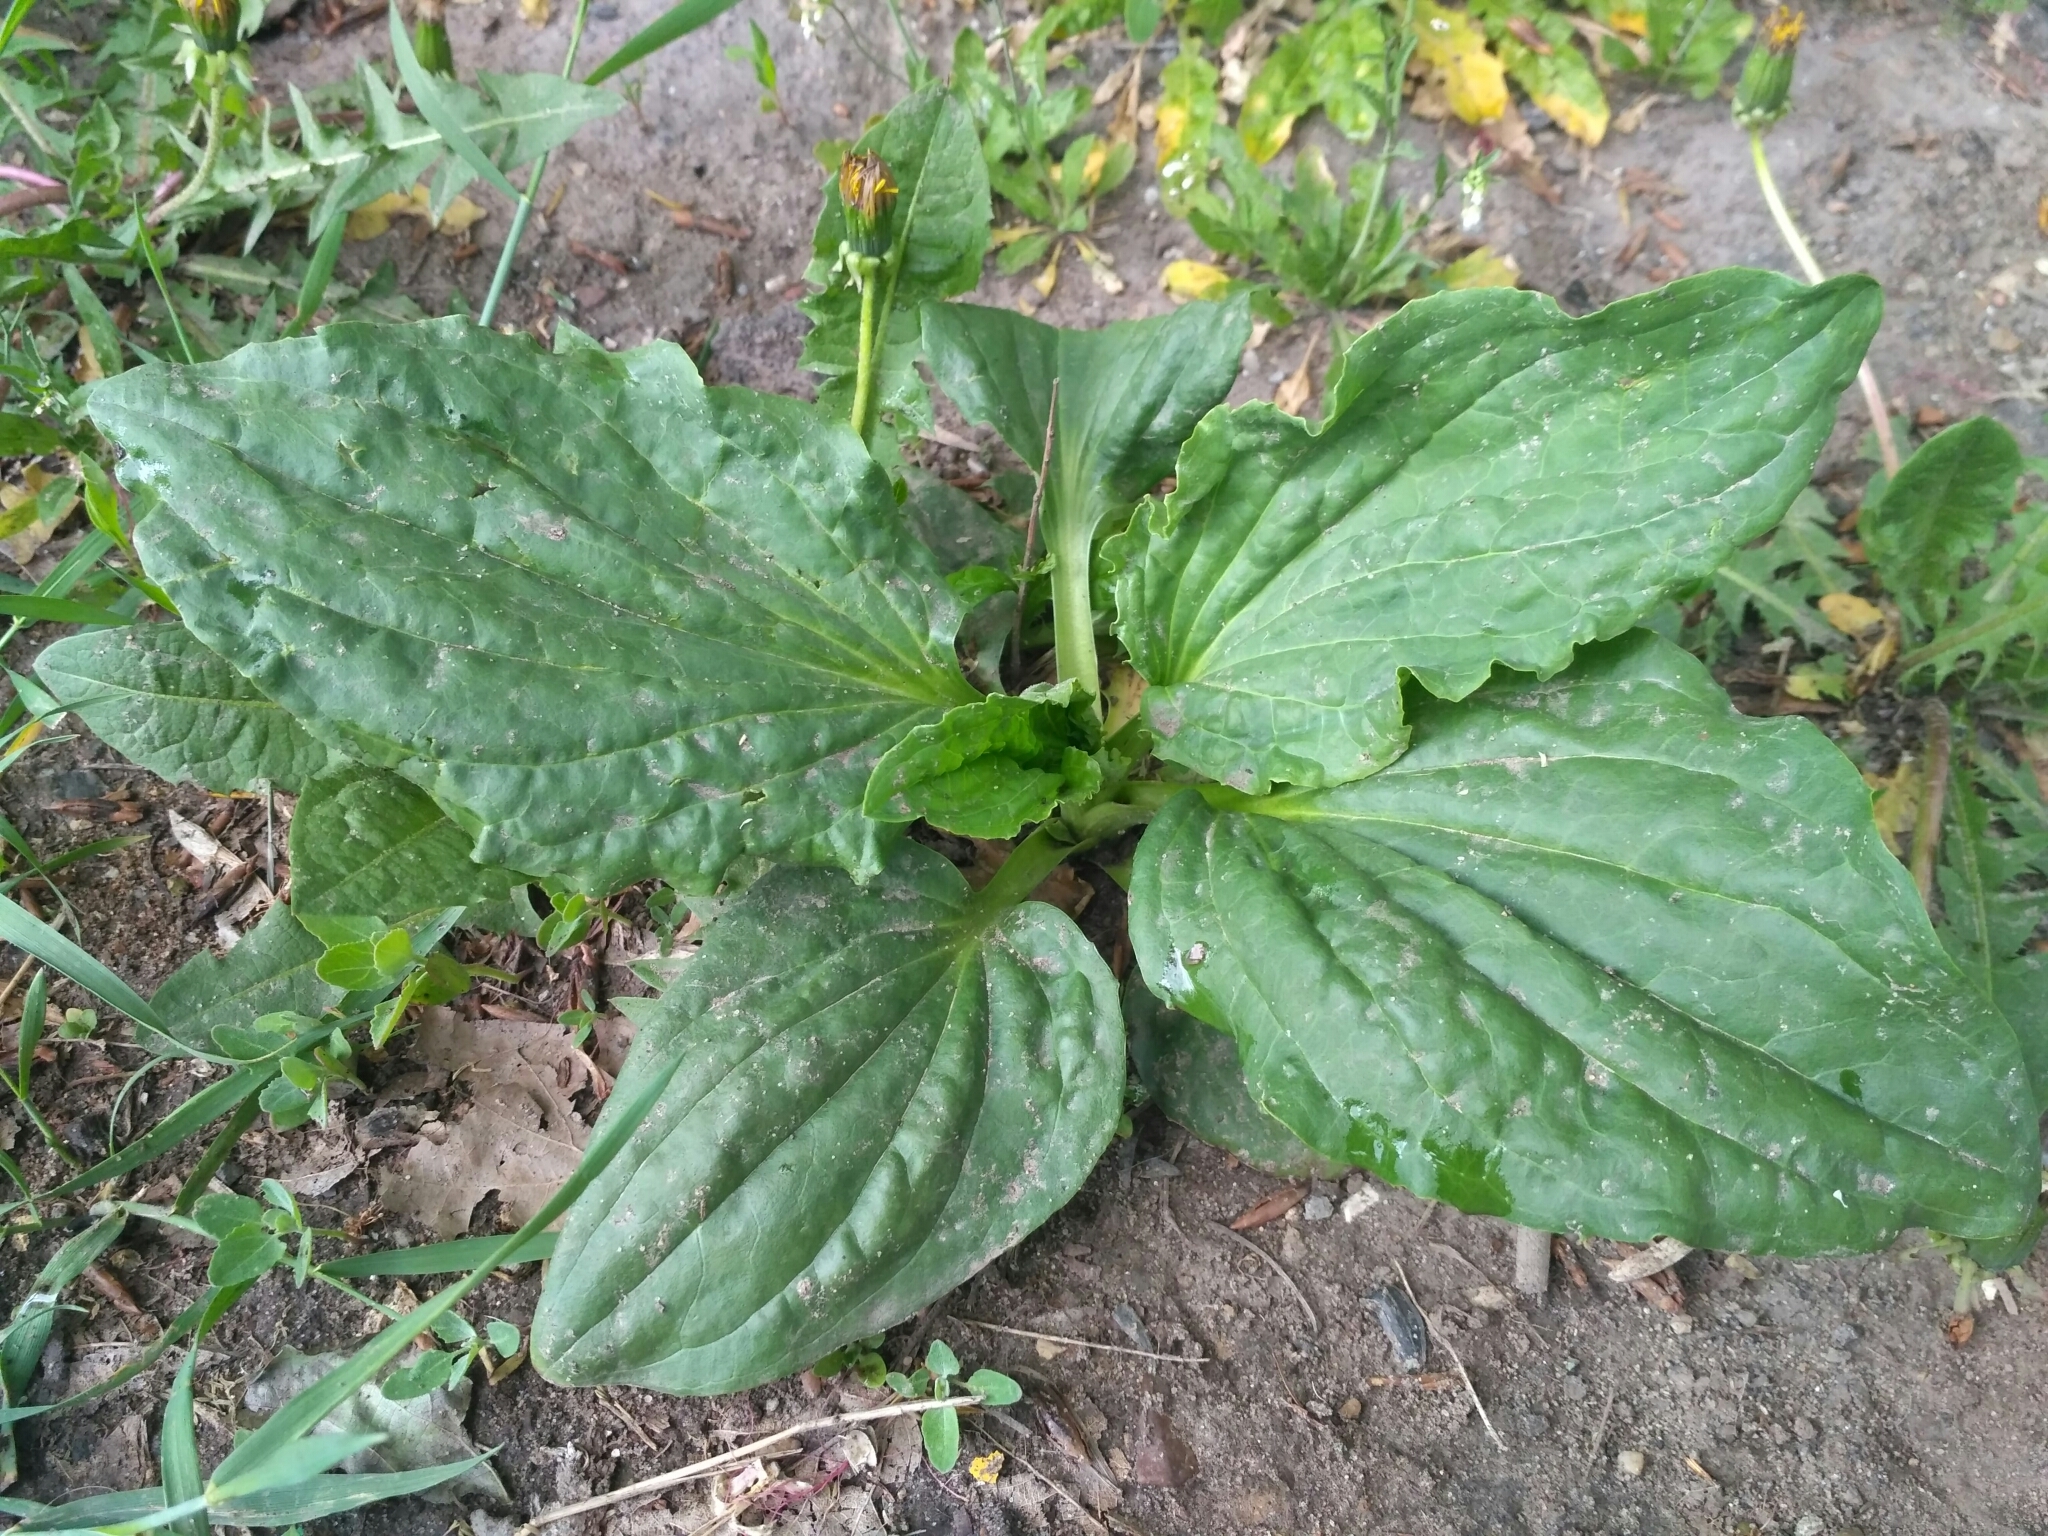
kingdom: Plantae
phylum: Tracheophyta
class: Magnoliopsida
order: Lamiales
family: Plantaginaceae
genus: Plantago
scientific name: Plantago major
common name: Common plantain
